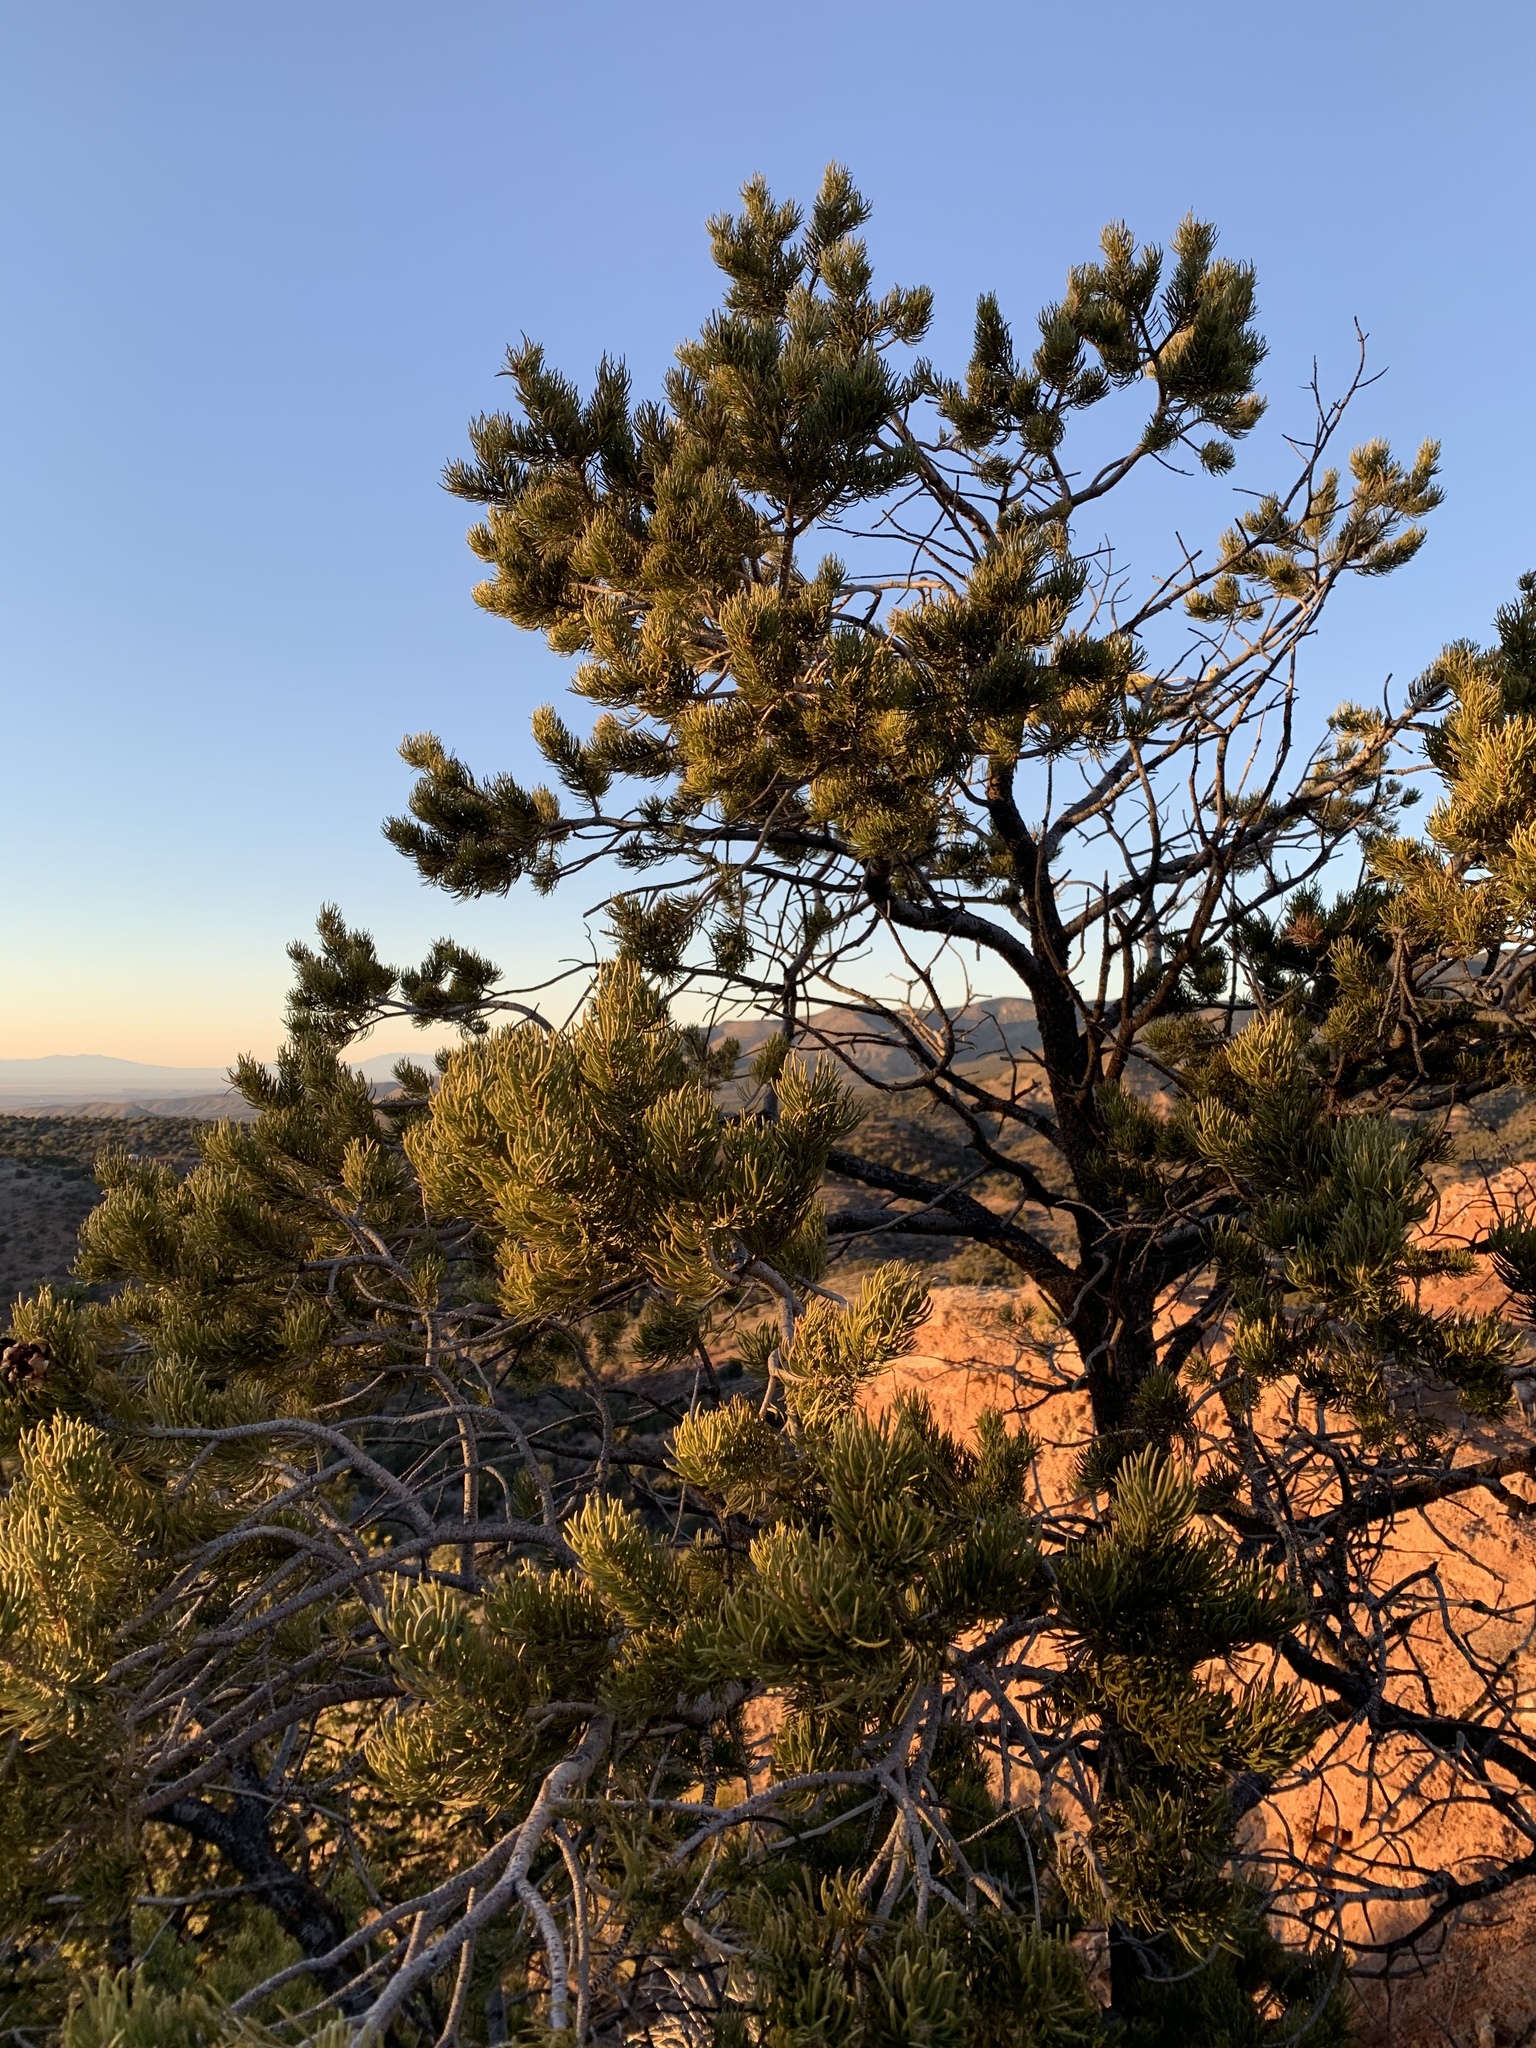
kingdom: Plantae
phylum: Tracheophyta
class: Pinopsida
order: Pinales
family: Pinaceae
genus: Pinus
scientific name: Pinus edulis
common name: Colorado pinyon
